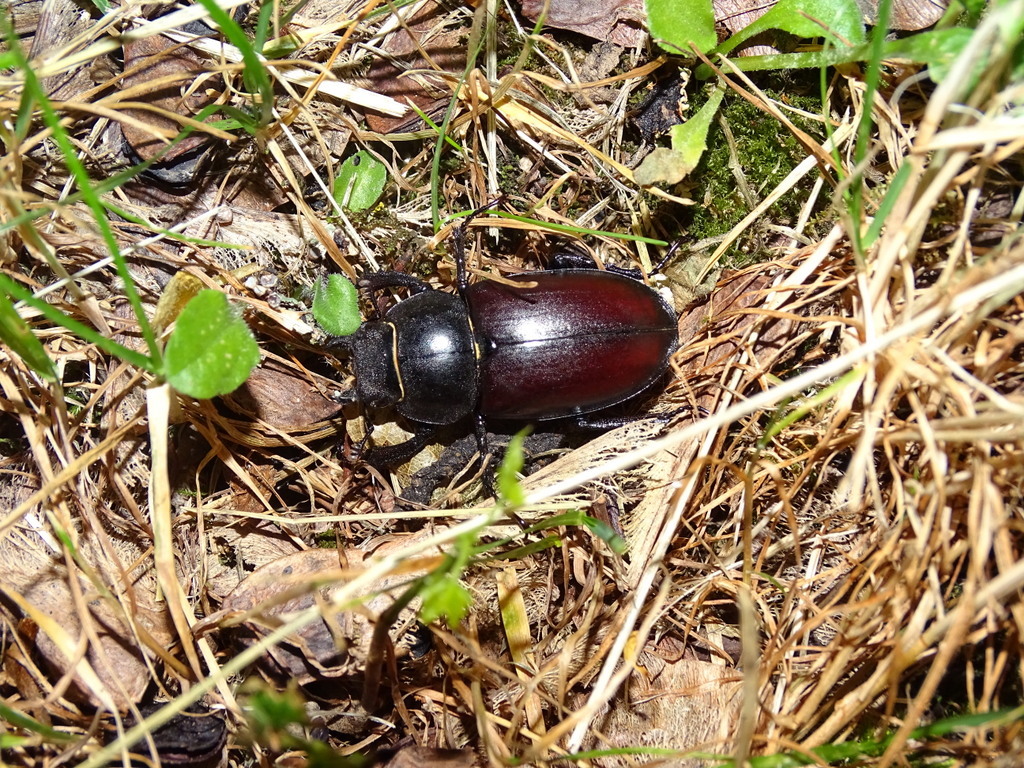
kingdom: Animalia
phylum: Arthropoda
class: Insecta
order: Coleoptera
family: Lucanidae
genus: Lucanus
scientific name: Lucanus cervus
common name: Stag beetle
